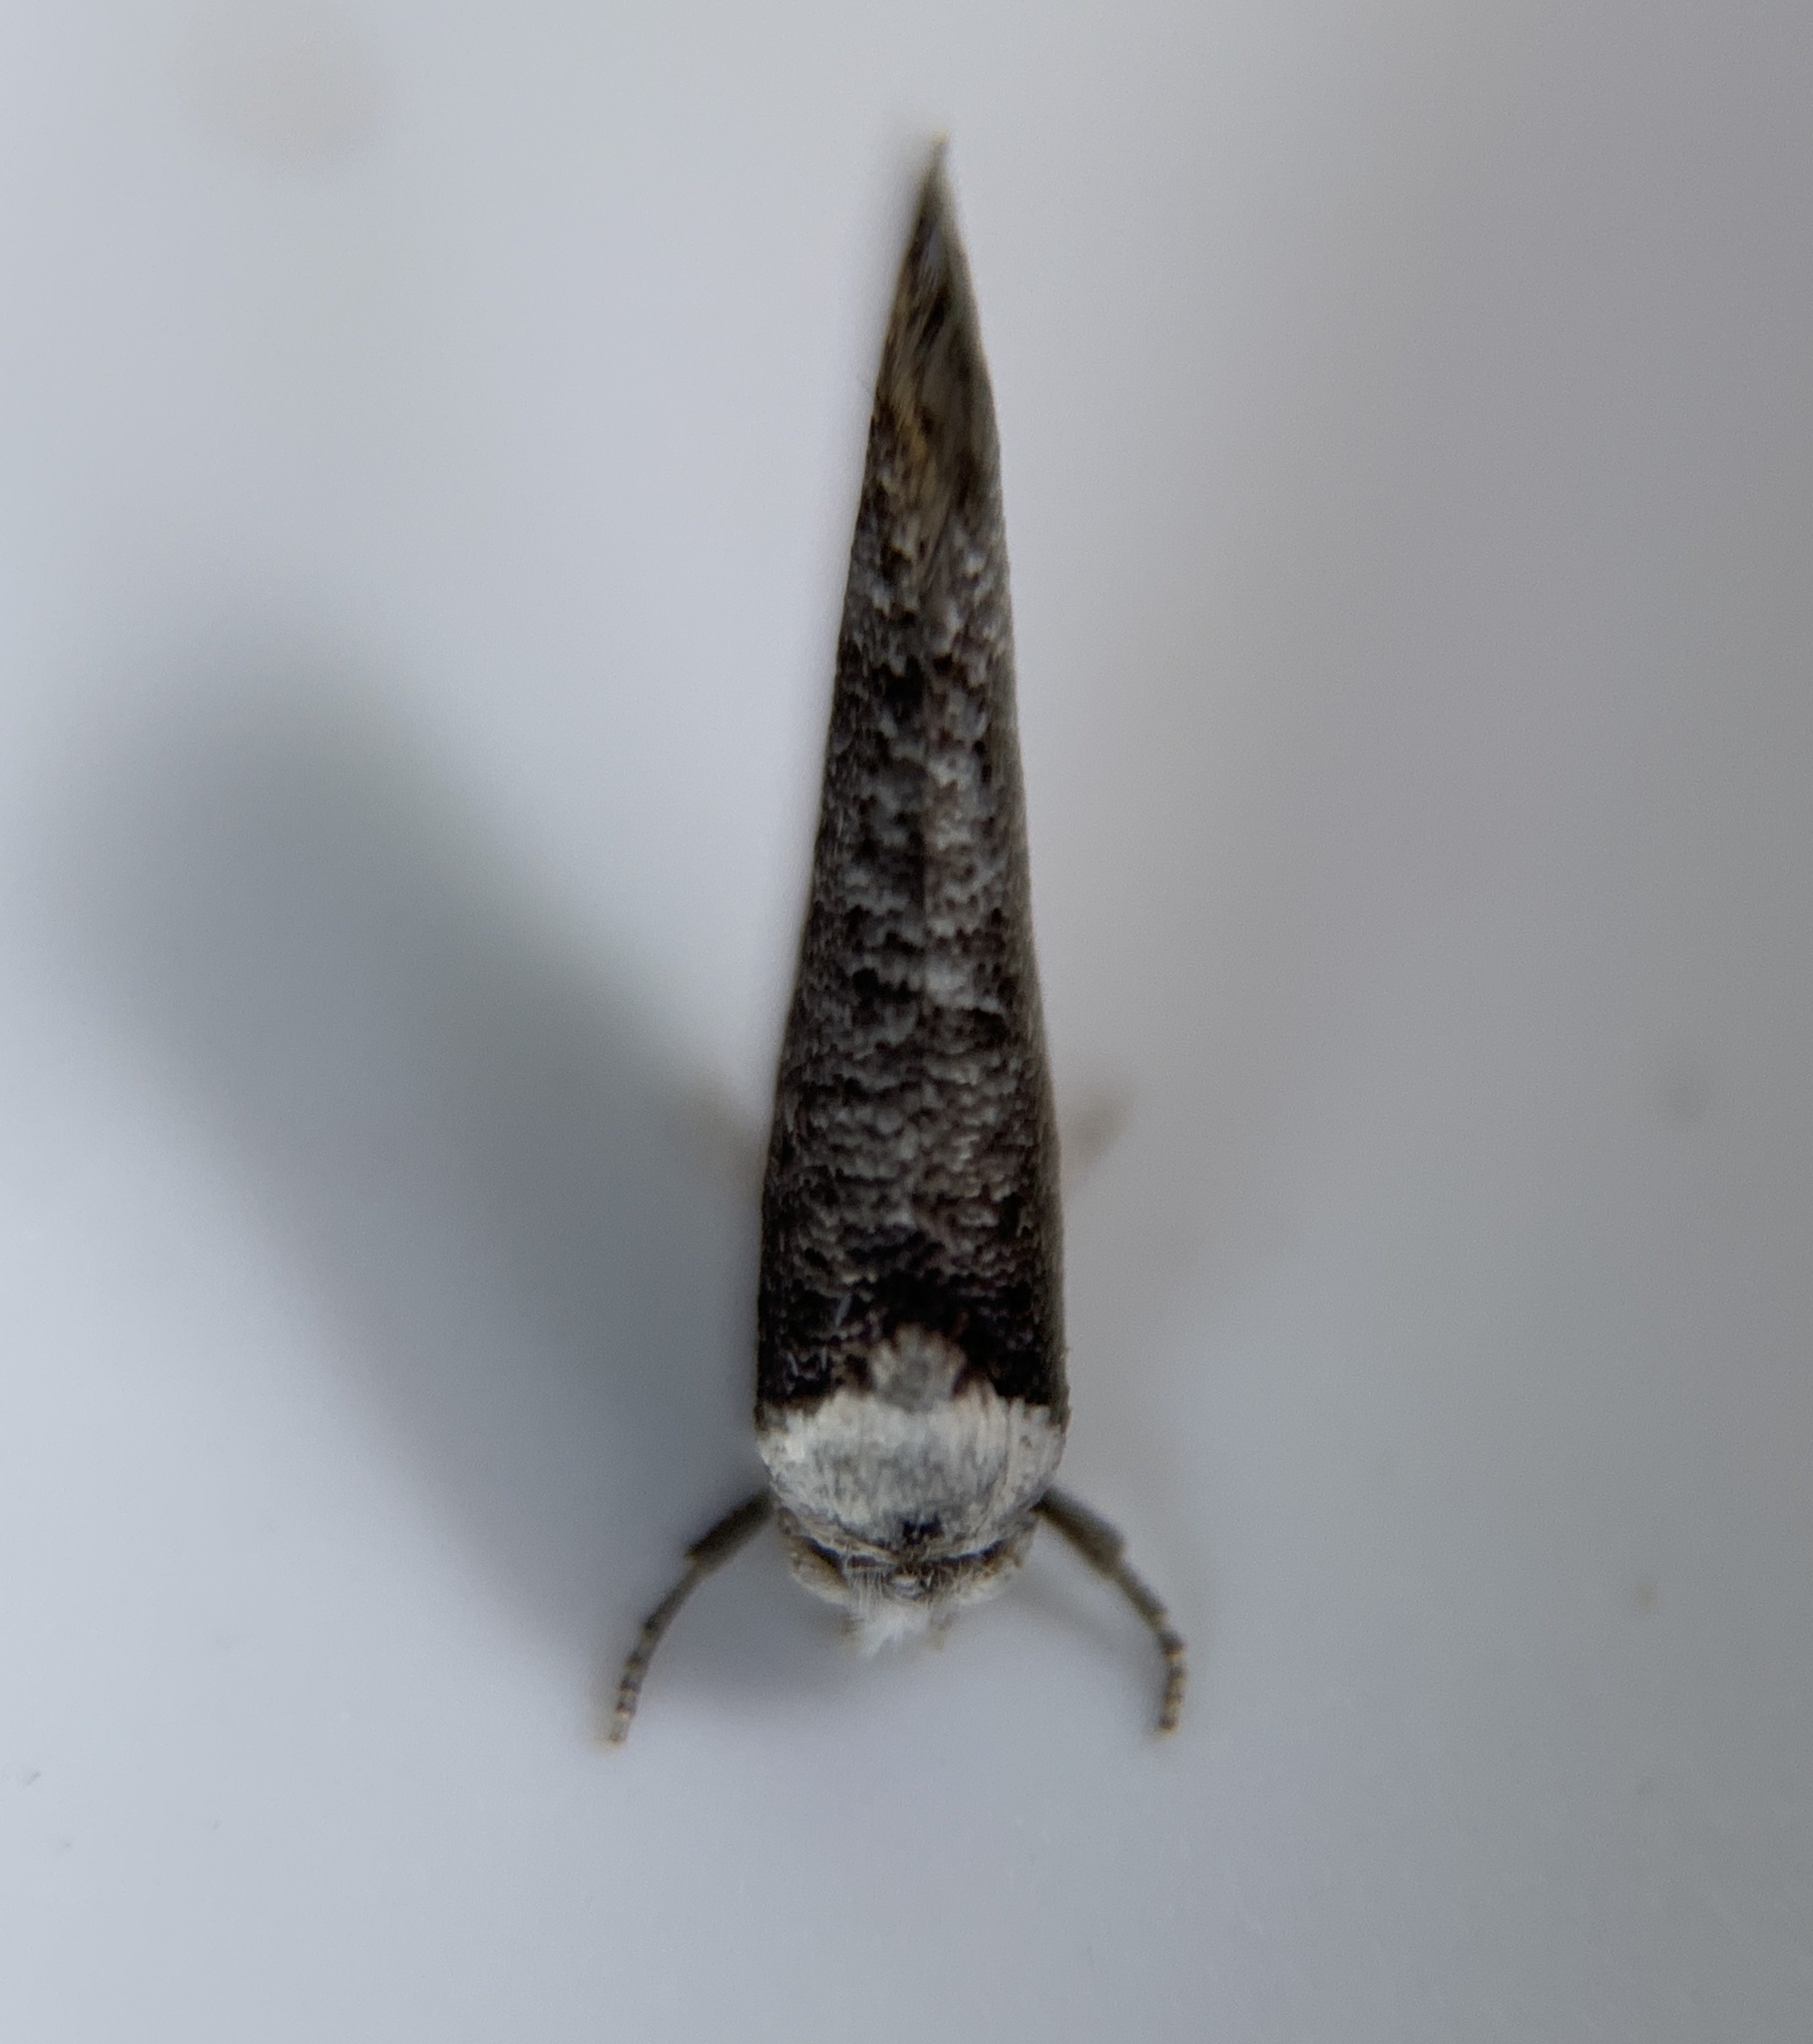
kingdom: Animalia
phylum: Arthropoda
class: Insecta
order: Lepidoptera
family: Yponomeutidae
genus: Swammerdamia
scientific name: Swammerdamia
